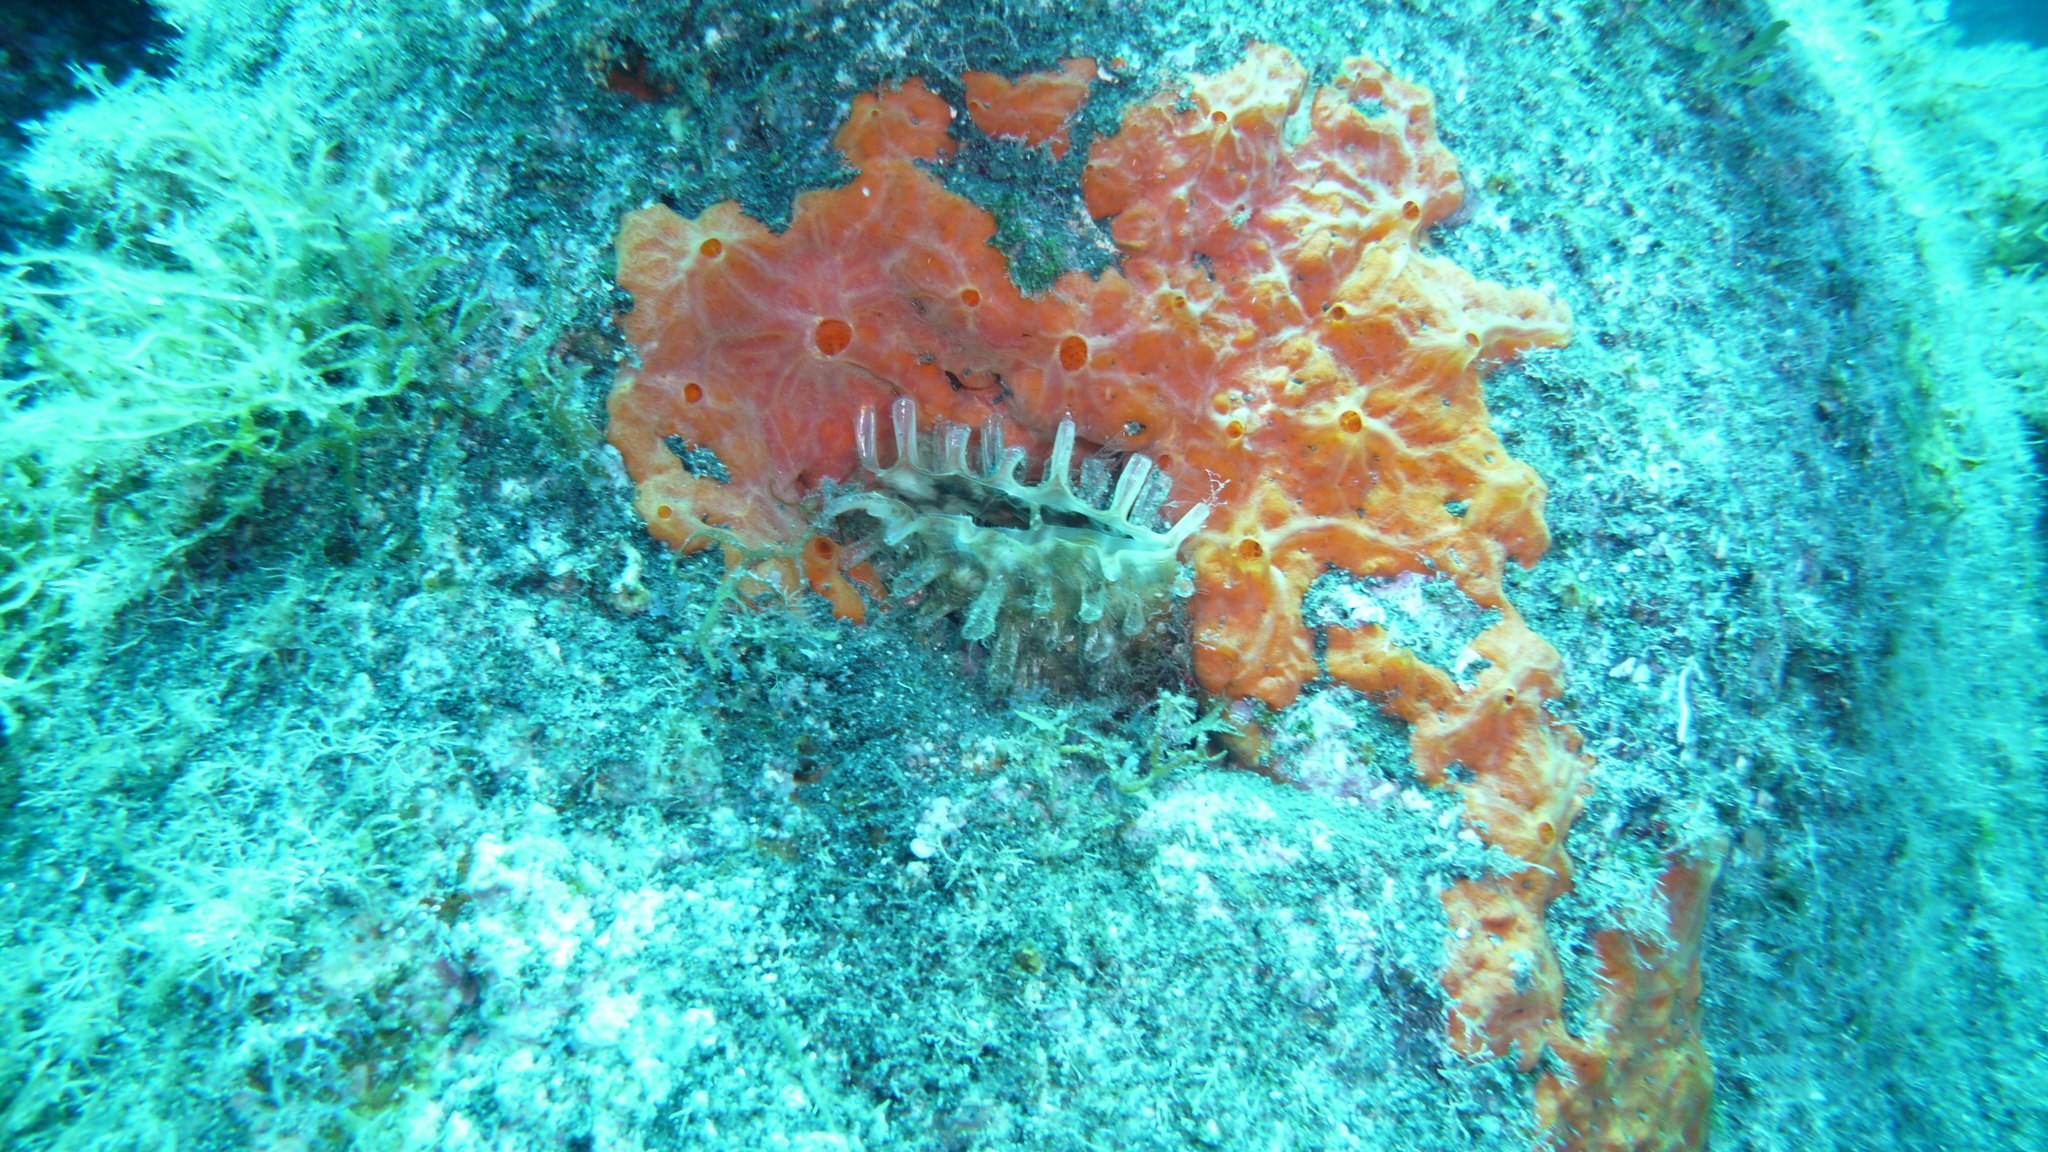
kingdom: Animalia
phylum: Mollusca
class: Bivalvia
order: Ostreida
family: Pinnidae
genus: Pinna
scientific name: Pinna rudis
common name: Rough penshell
